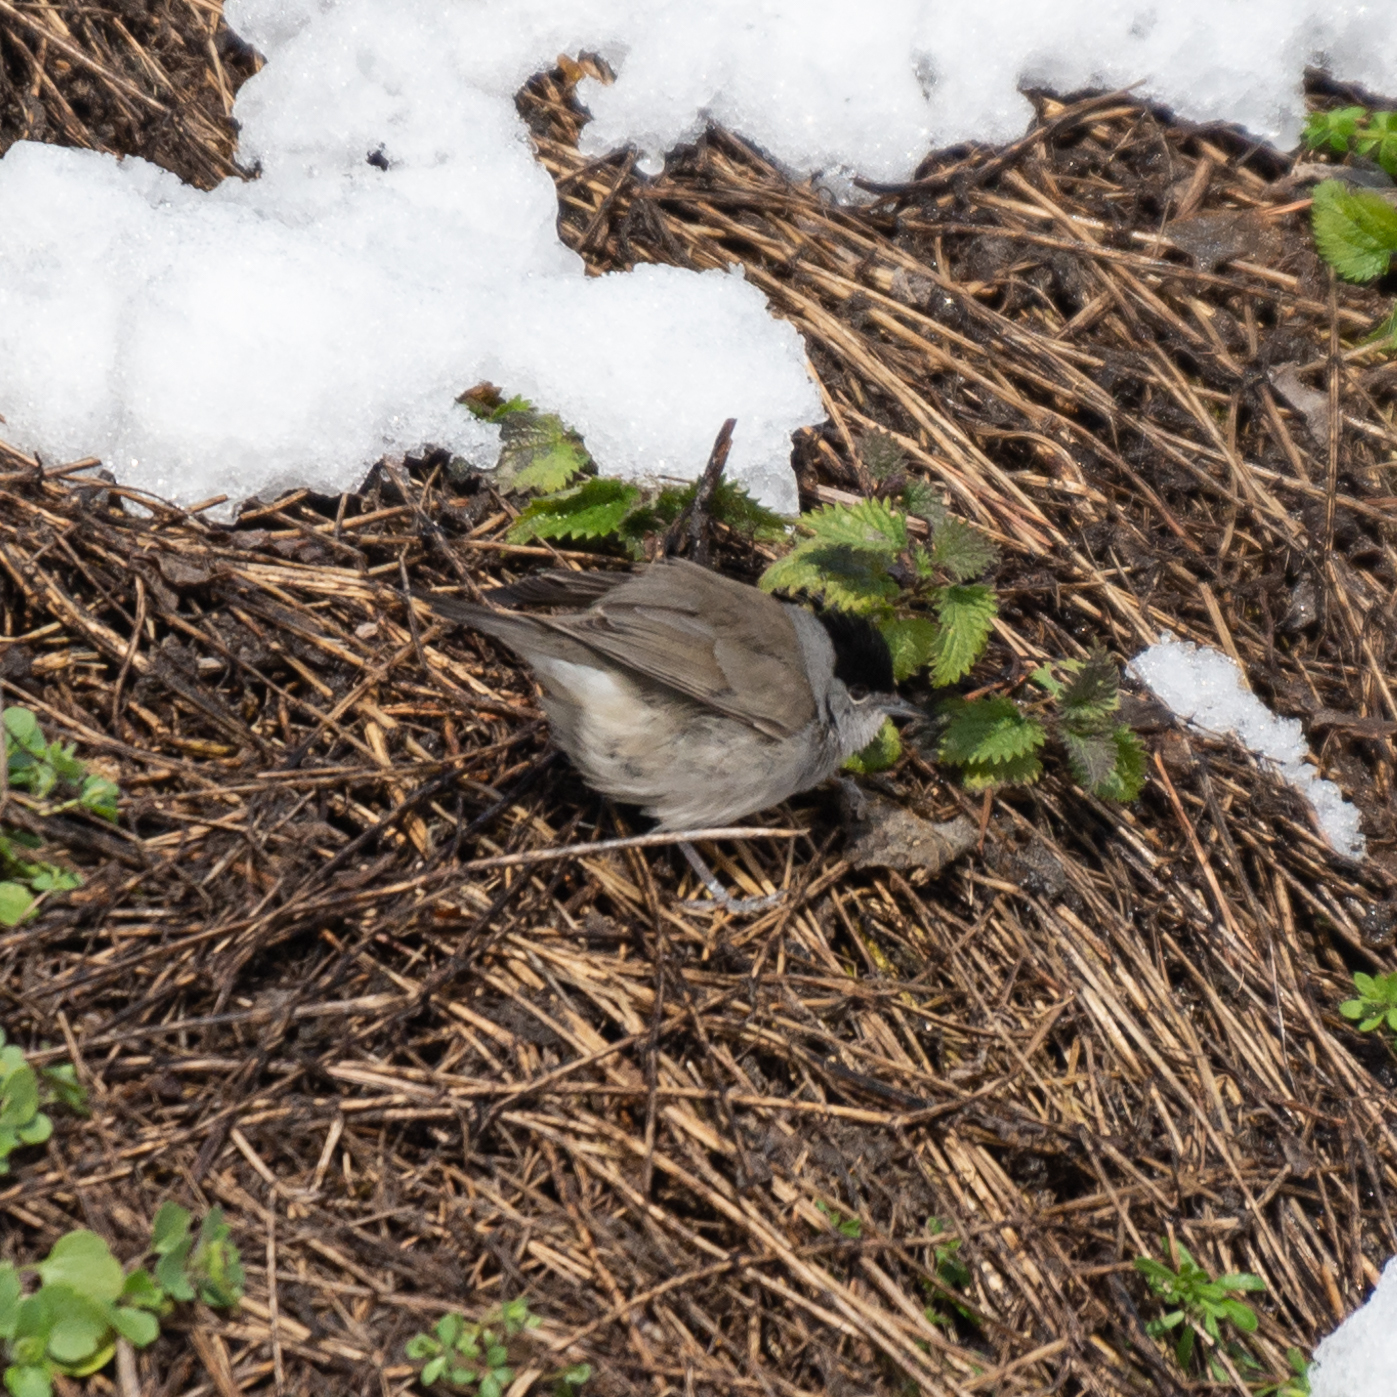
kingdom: Animalia
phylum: Chordata
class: Aves
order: Passeriformes
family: Sylviidae
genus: Sylvia
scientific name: Sylvia atricapilla
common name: Eurasian blackcap
